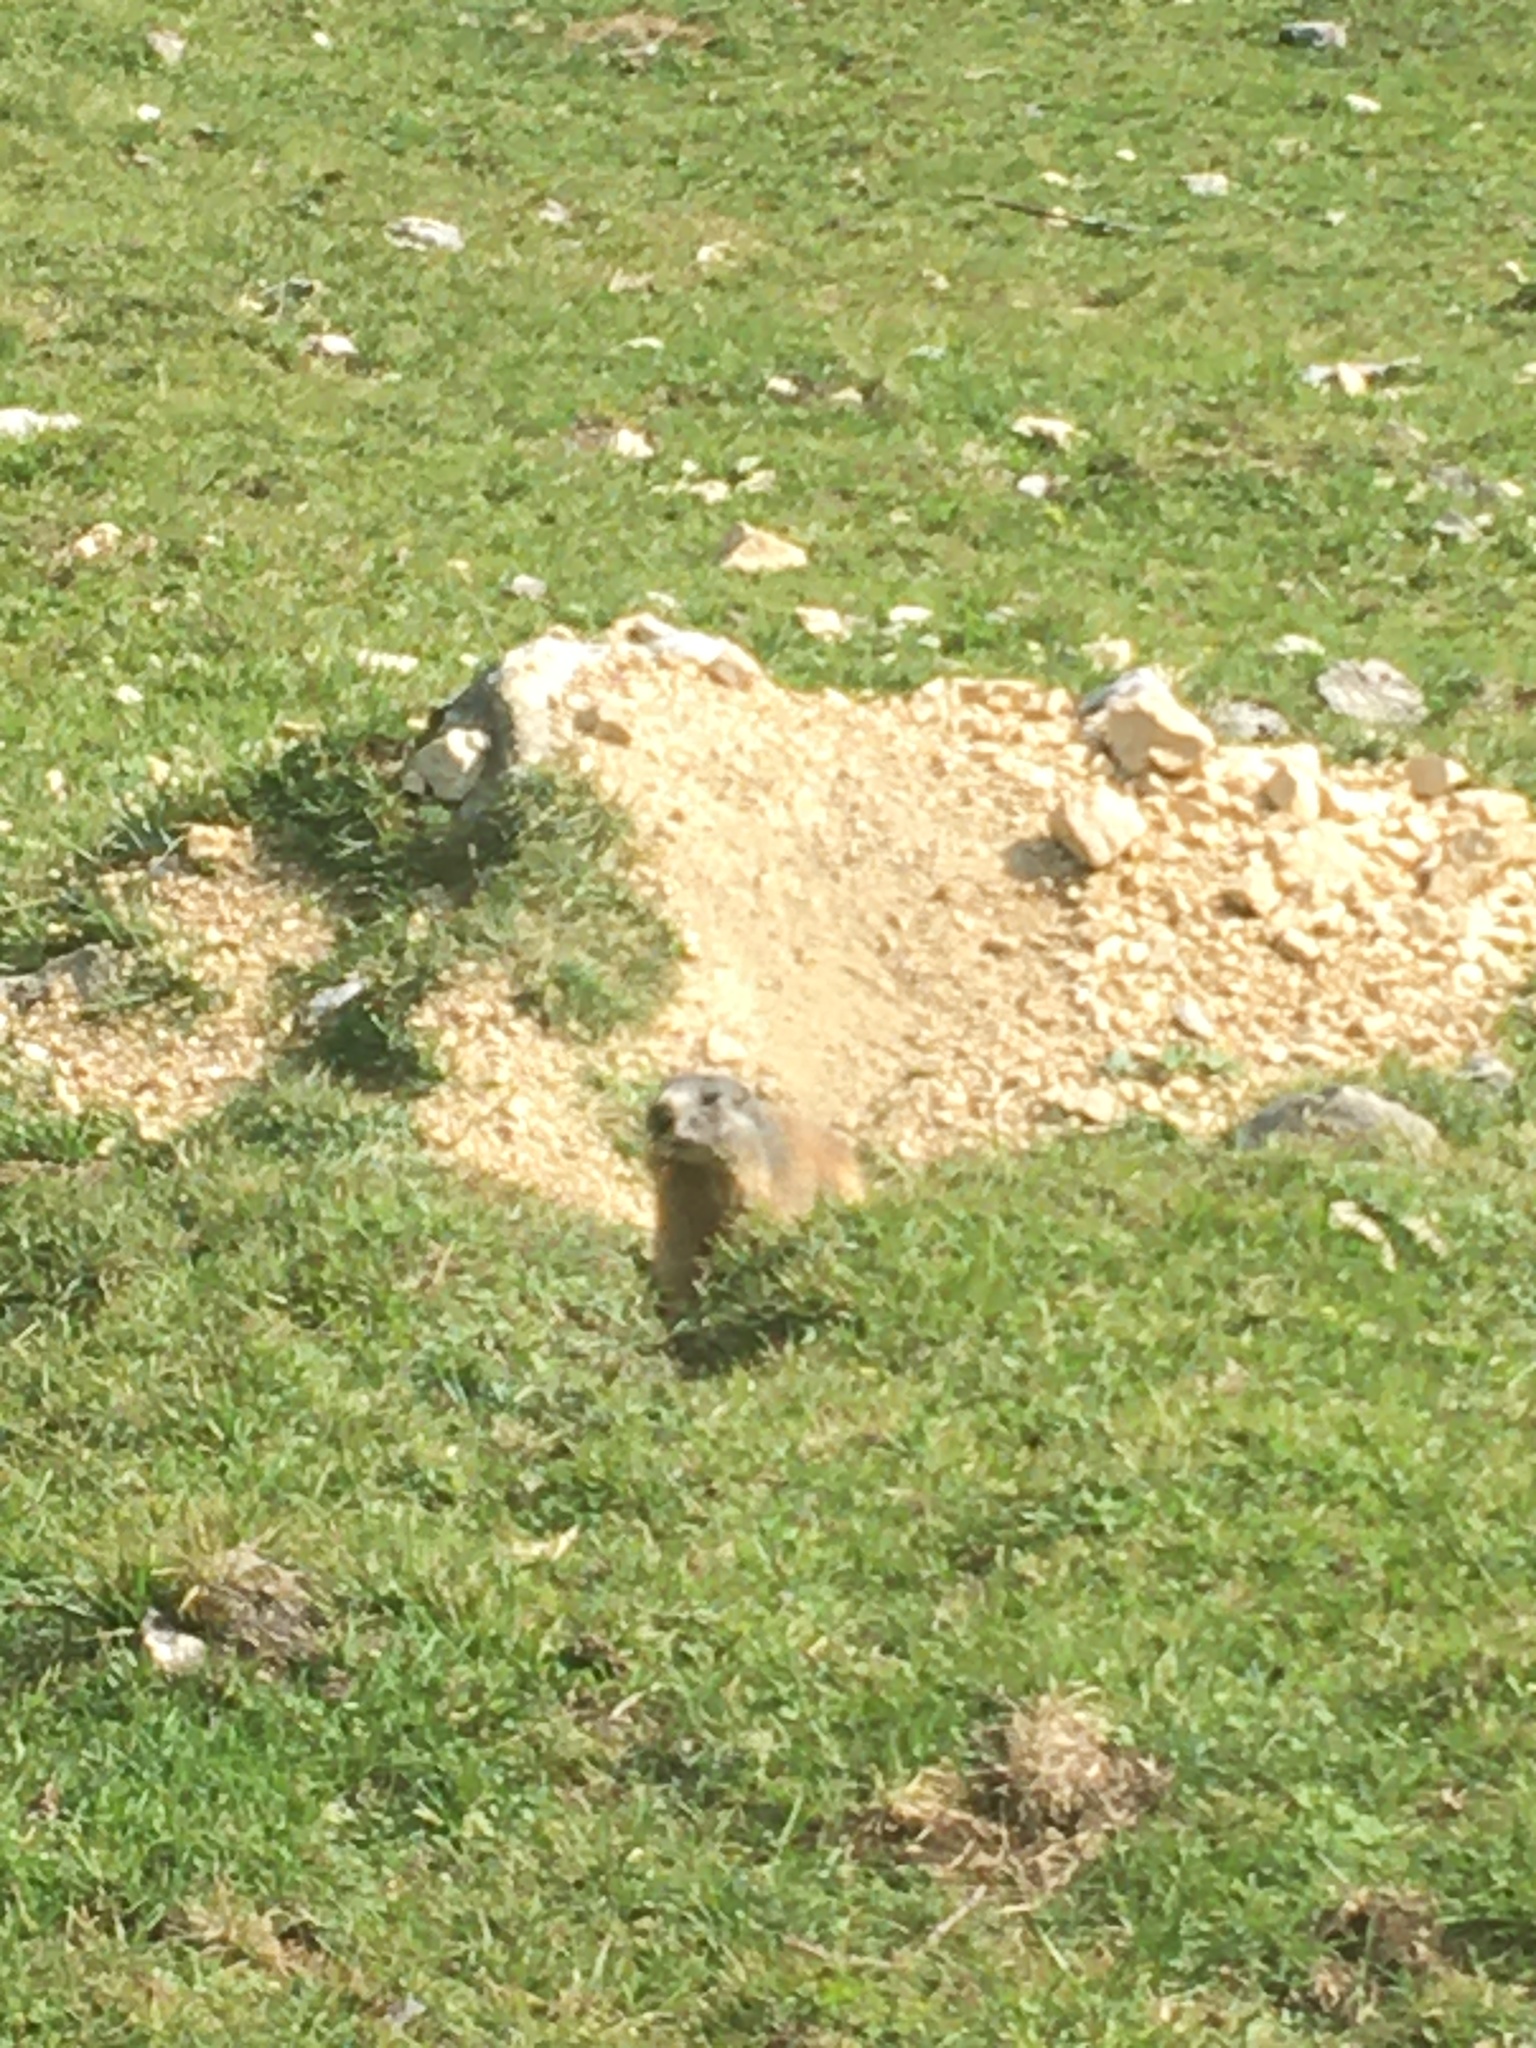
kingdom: Animalia
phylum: Chordata
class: Mammalia
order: Rodentia
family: Sciuridae
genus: Marmota
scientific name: Marmota marmota
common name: Alpine marmot
